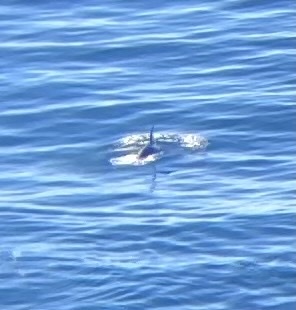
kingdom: Animalia
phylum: Chordata
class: Mammalia
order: Cetacea
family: Delphinidae
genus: Lagenorhynchus
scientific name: Lagenorhynchus obliquidens
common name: Pacific white-sided dolphin
